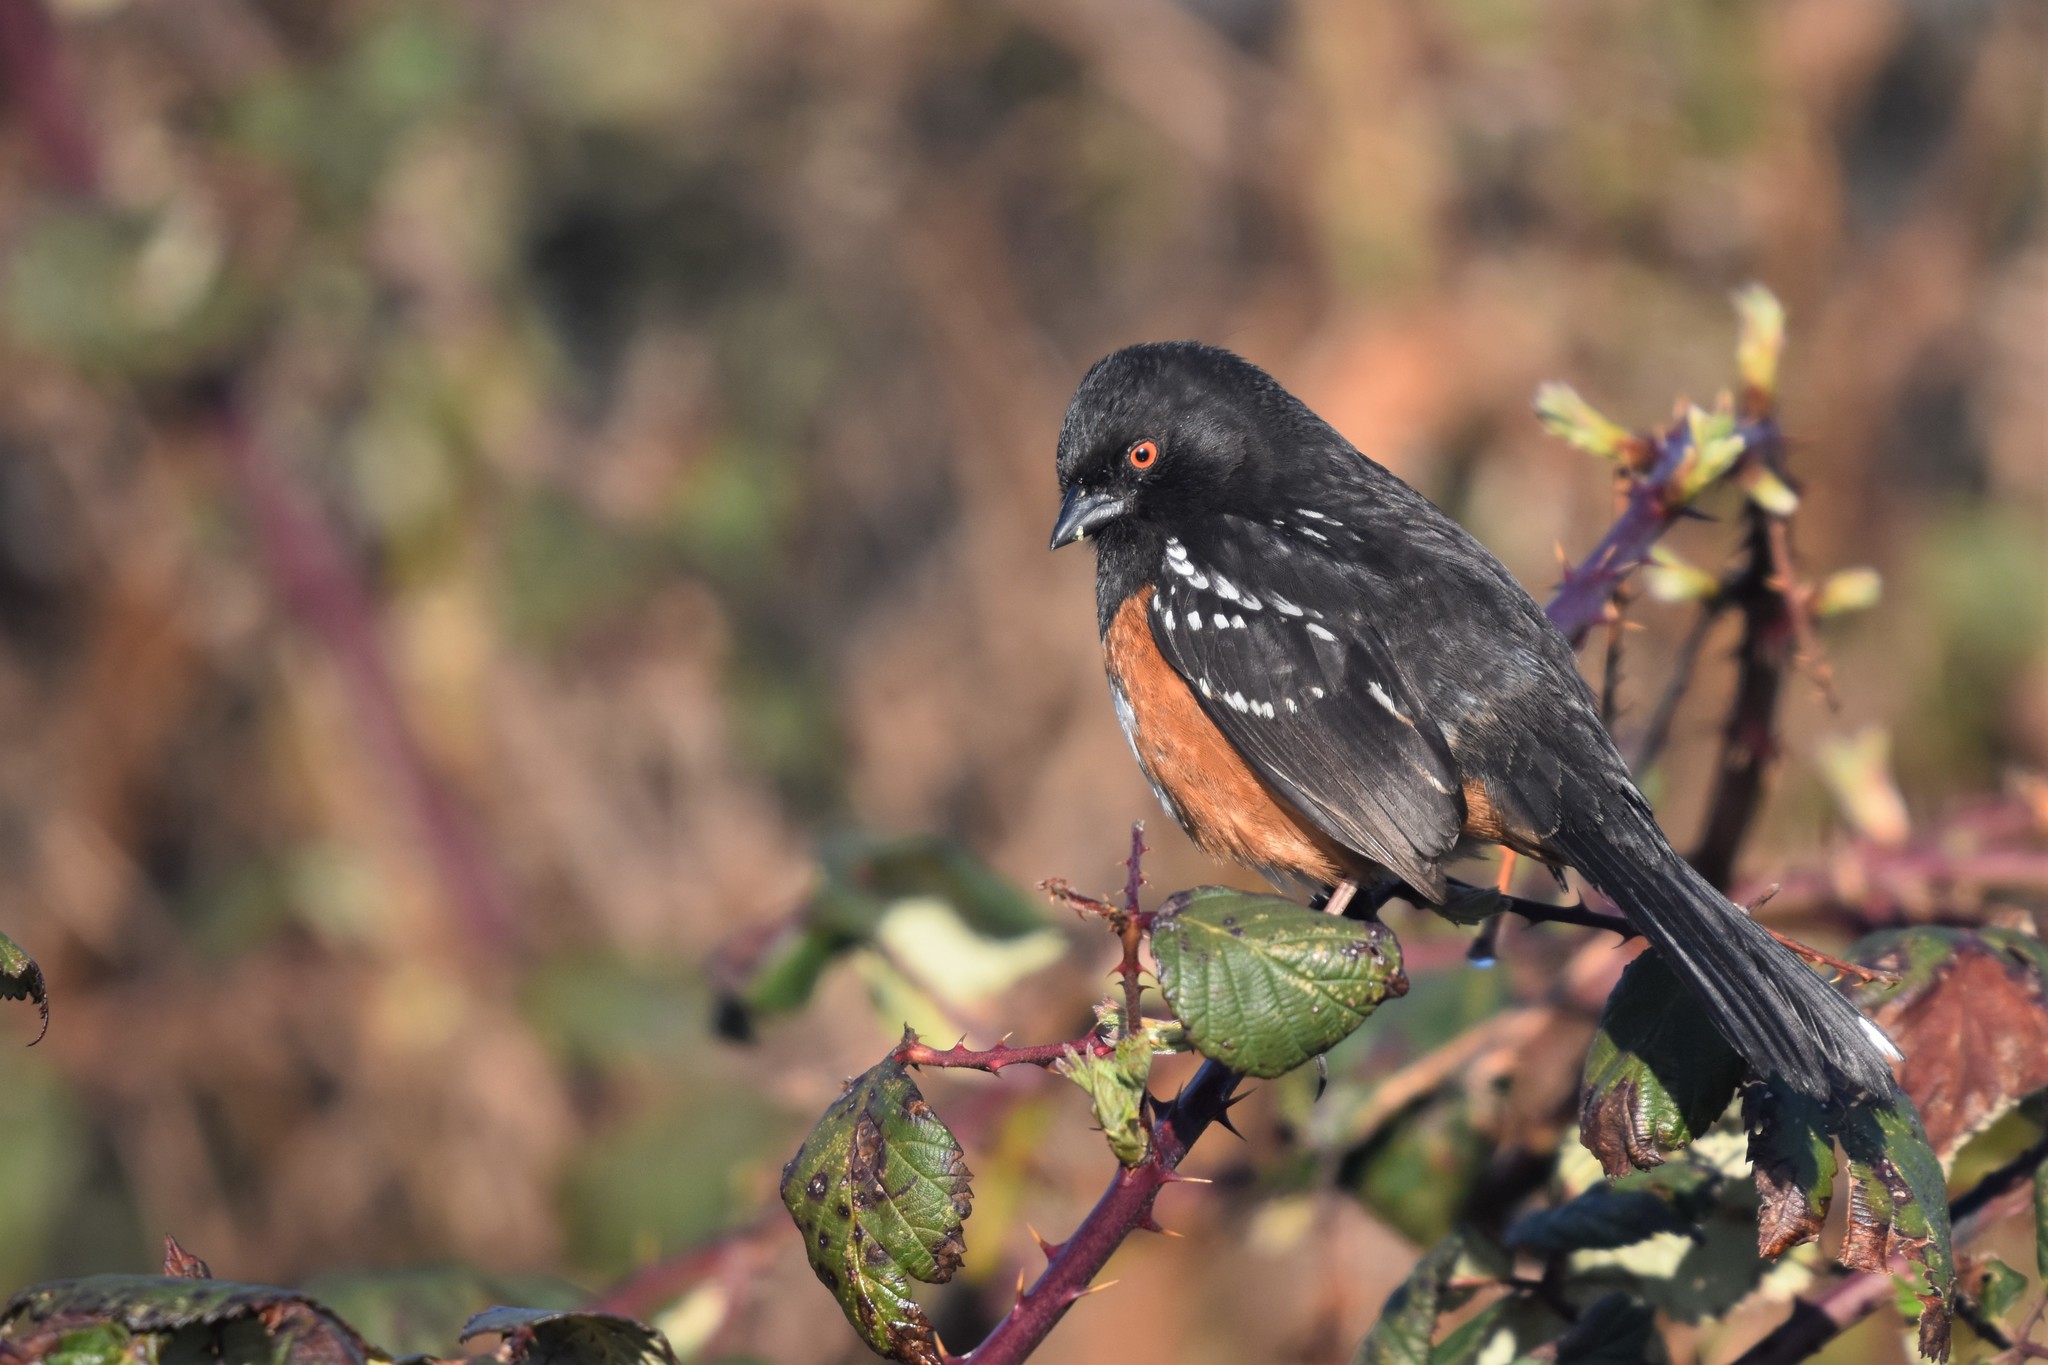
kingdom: Animalia
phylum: Chordata
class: Aves
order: Passeriformes
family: Passerellidae
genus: Pipilo
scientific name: Pipilo maculatus
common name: Spotted towhee
